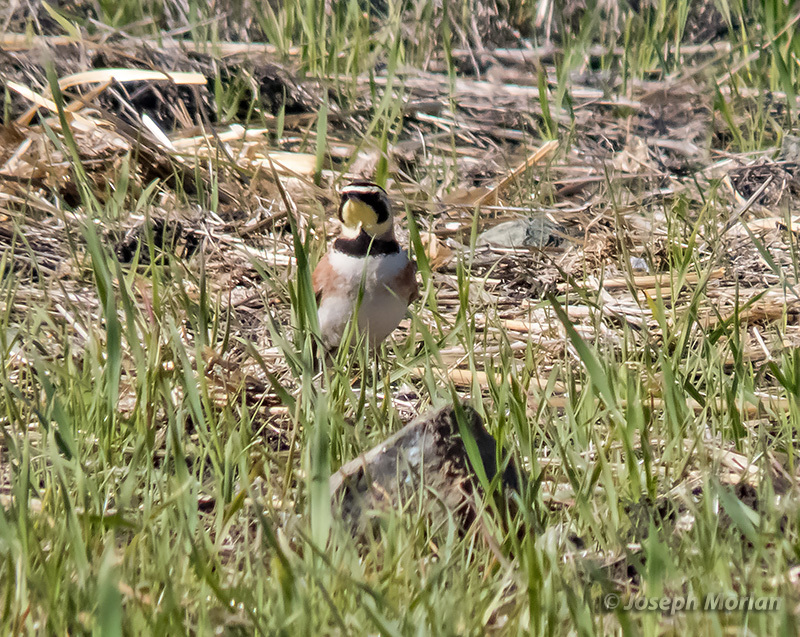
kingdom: Animalia
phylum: Chordata
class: Aves
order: Passeriformes
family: Alaudidae
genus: Eremophila
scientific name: Eremophila alpestris
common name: Horned lark
